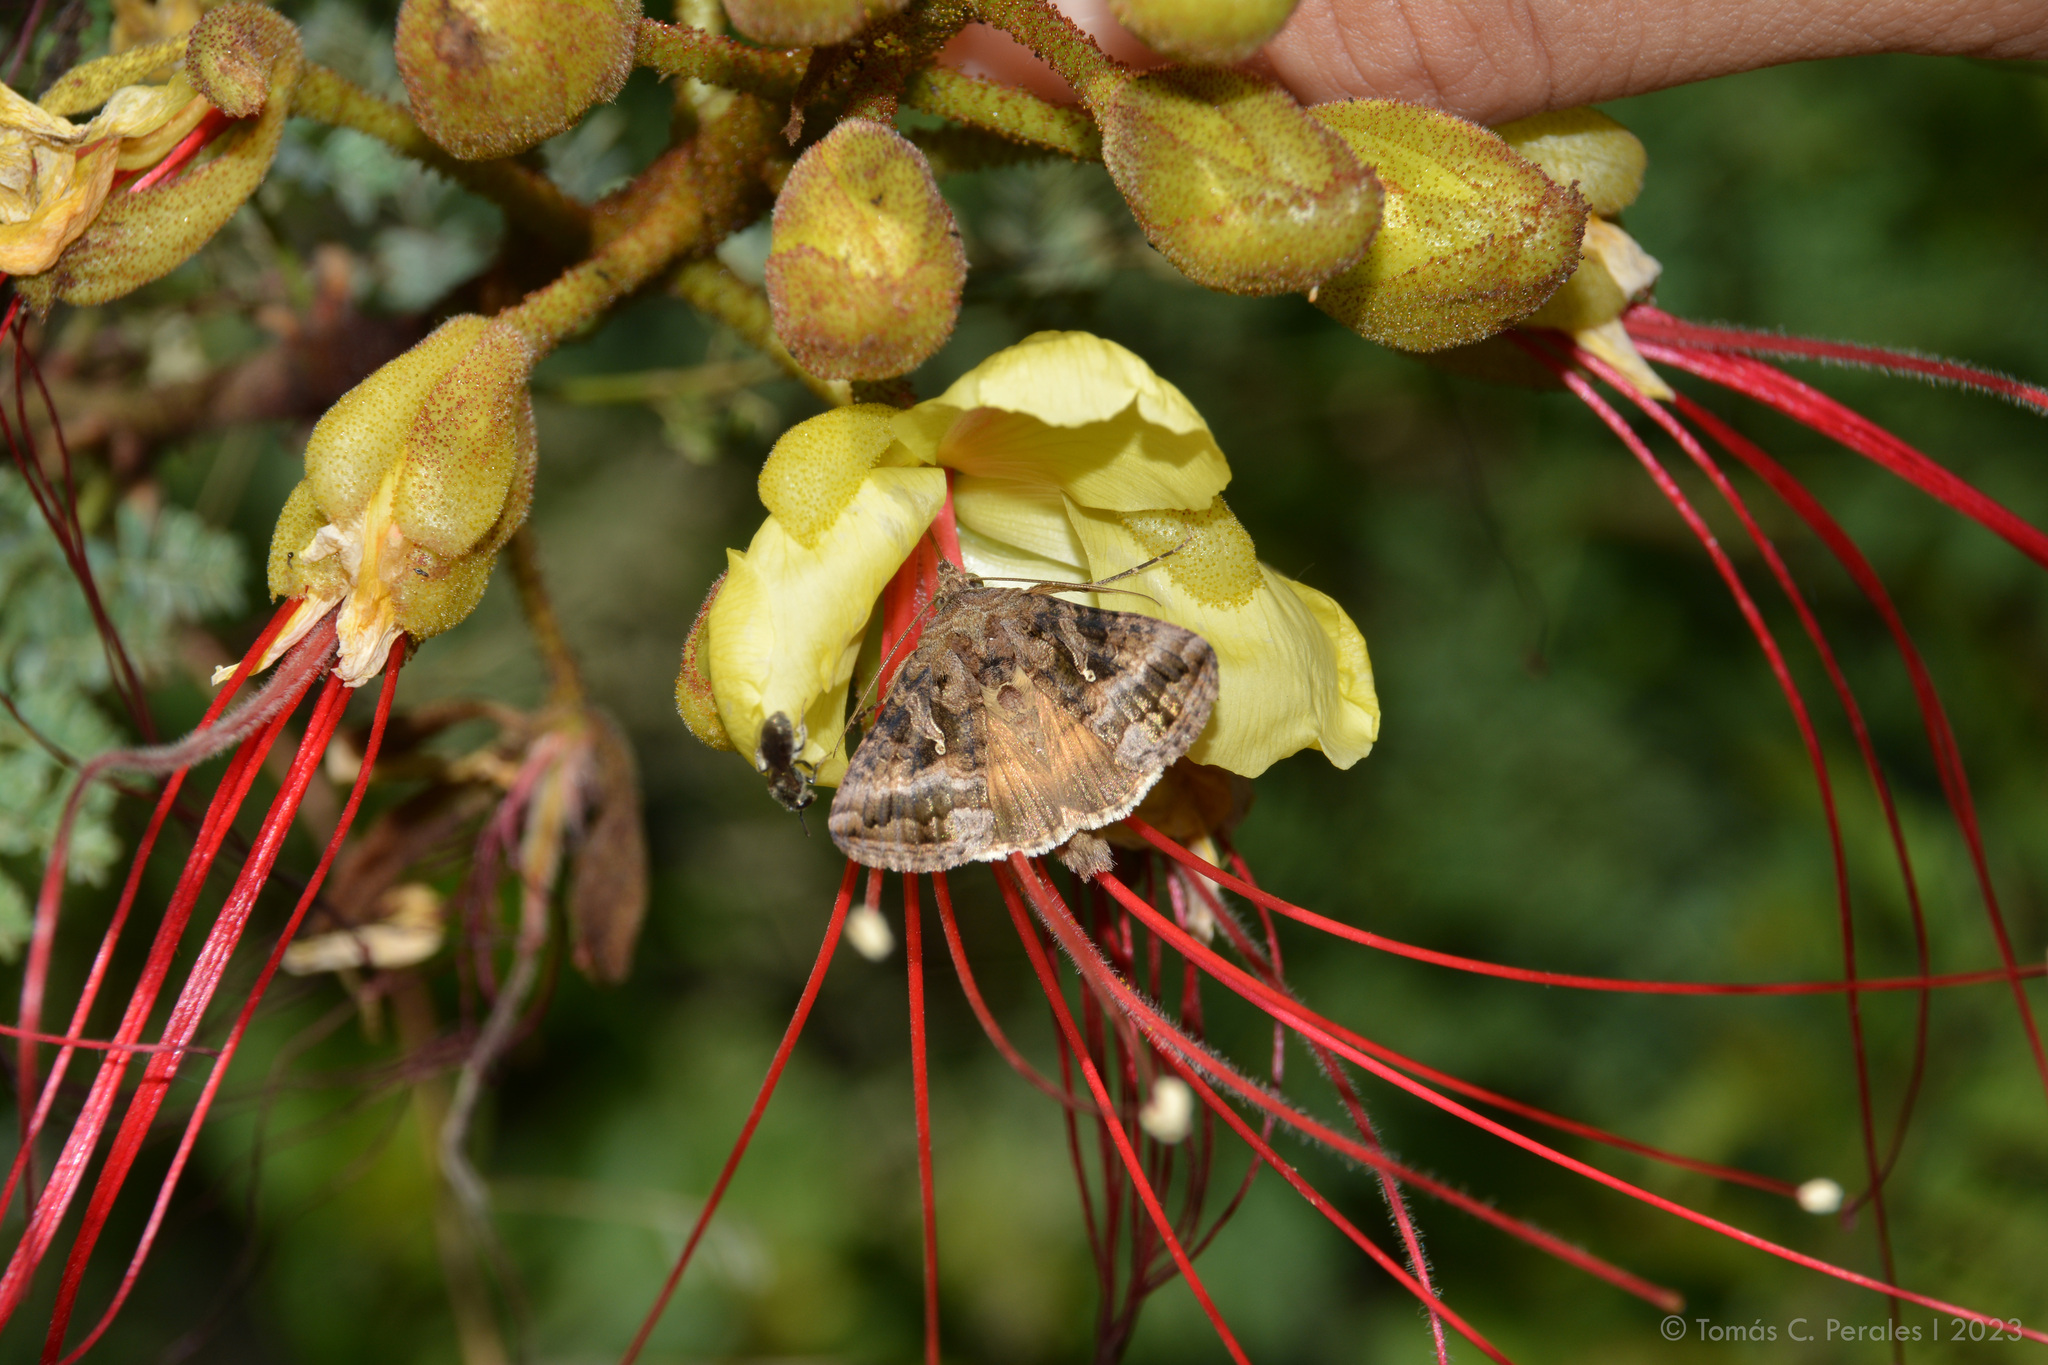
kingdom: Plantae
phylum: Tracheophyta
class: Magnoliopsida
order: Fabales
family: Fabaceae
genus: Erythrostemon
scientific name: Erythrostemon gilliesii
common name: Bird-of-paradise shrub
